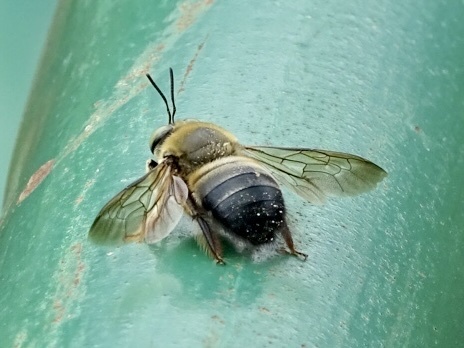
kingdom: Animalia
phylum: Arthropoda
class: Insecta
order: Hymenoptera
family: Apidae
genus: Xylocopa
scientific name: Xylocopa dejeanii
